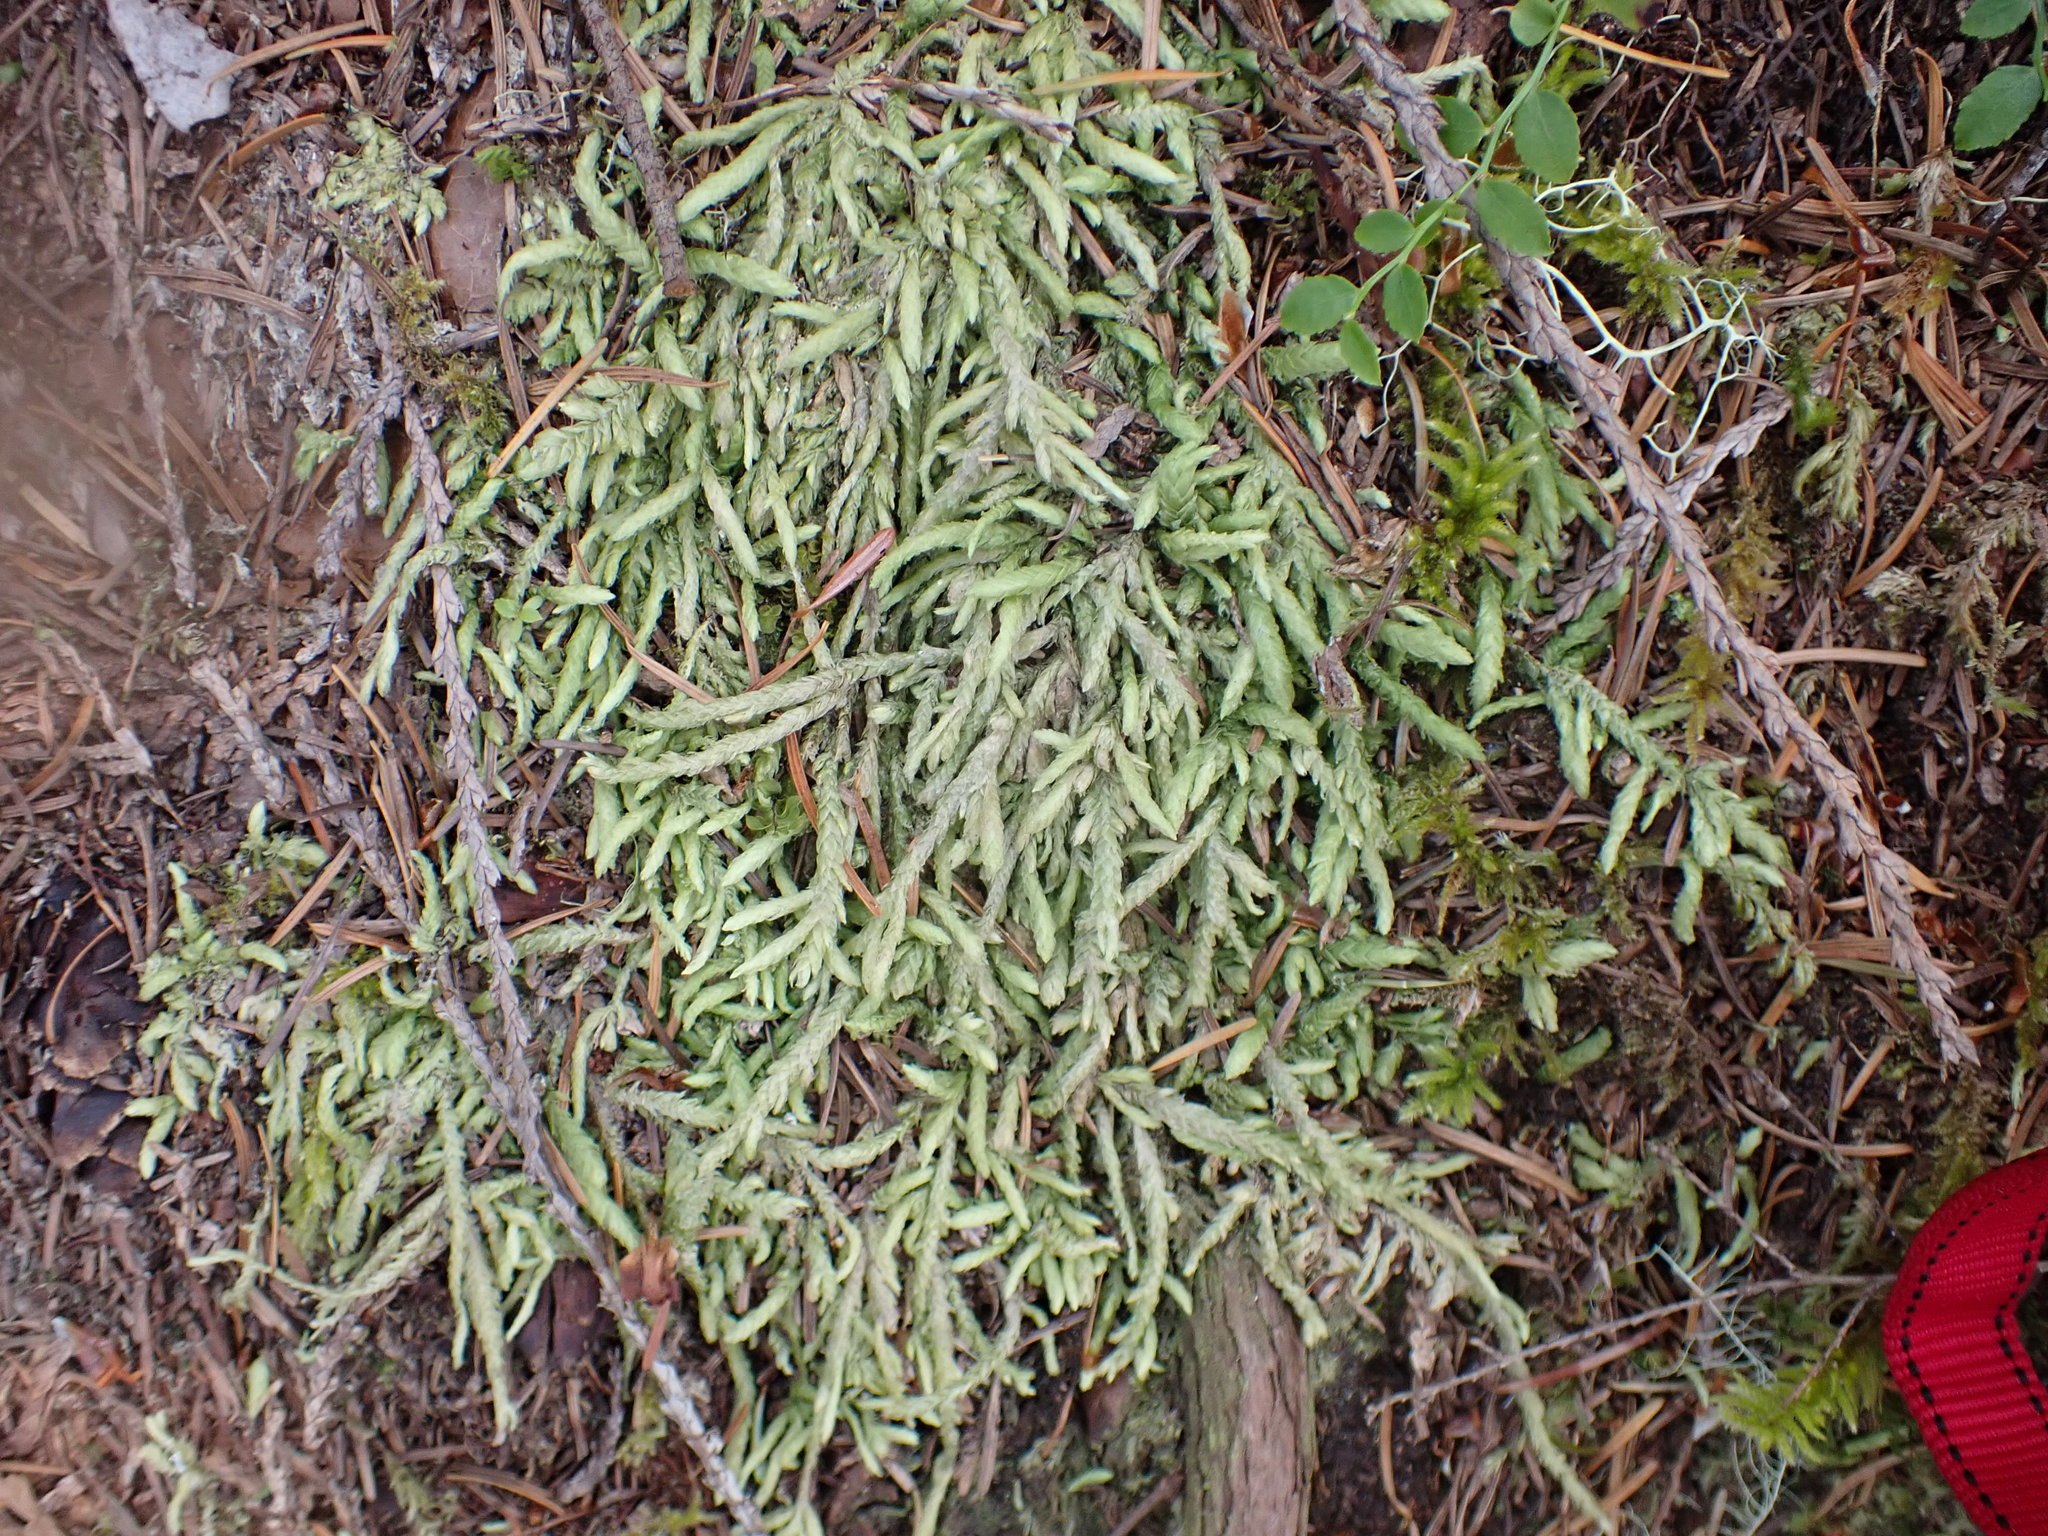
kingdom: Plantae
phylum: Bryophyta
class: Bryopsida
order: Hypnales
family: Plagiotheciaceae
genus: Plagiothecium
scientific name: Plagiothecium undulatum
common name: Waved silk-moss
